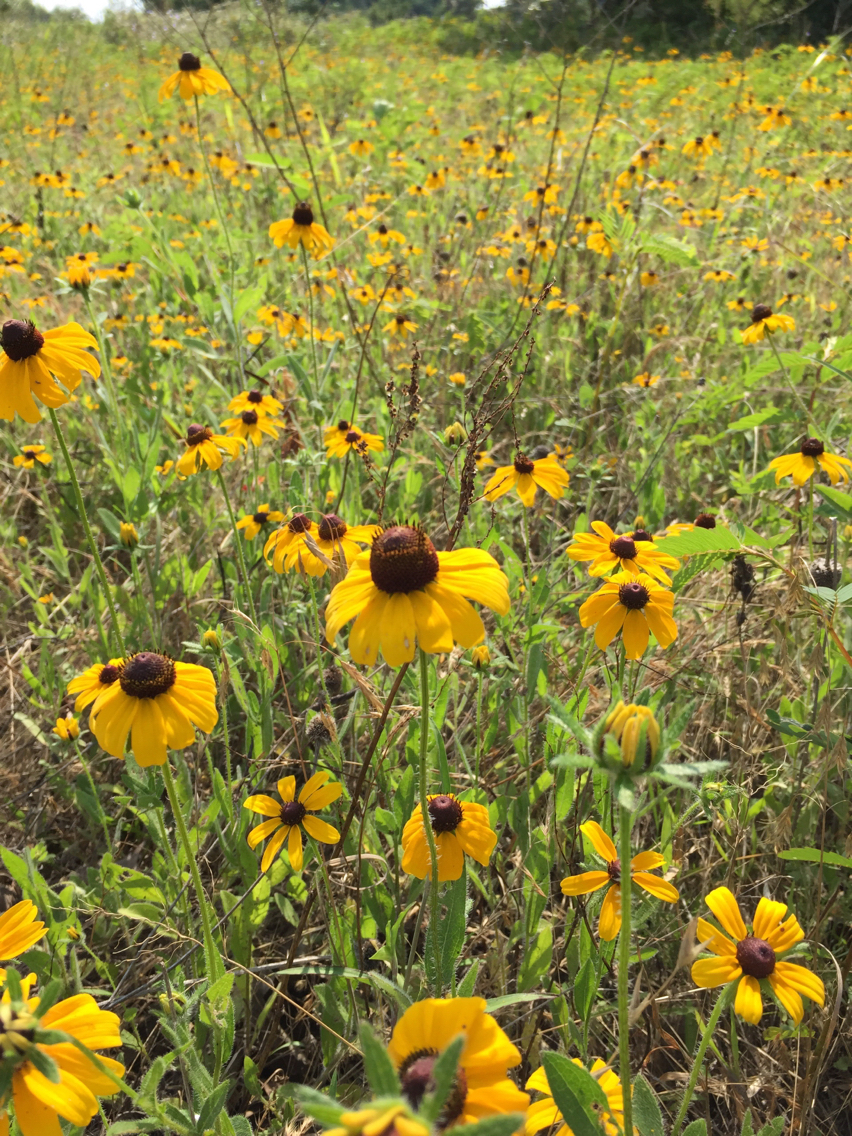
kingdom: Plantae
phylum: Tracheophyta
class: Magnoliopsida
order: Asterales
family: Asteraceae
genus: Rudbeckia
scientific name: Rudbeckia hirta
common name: Black-eyed-susan
